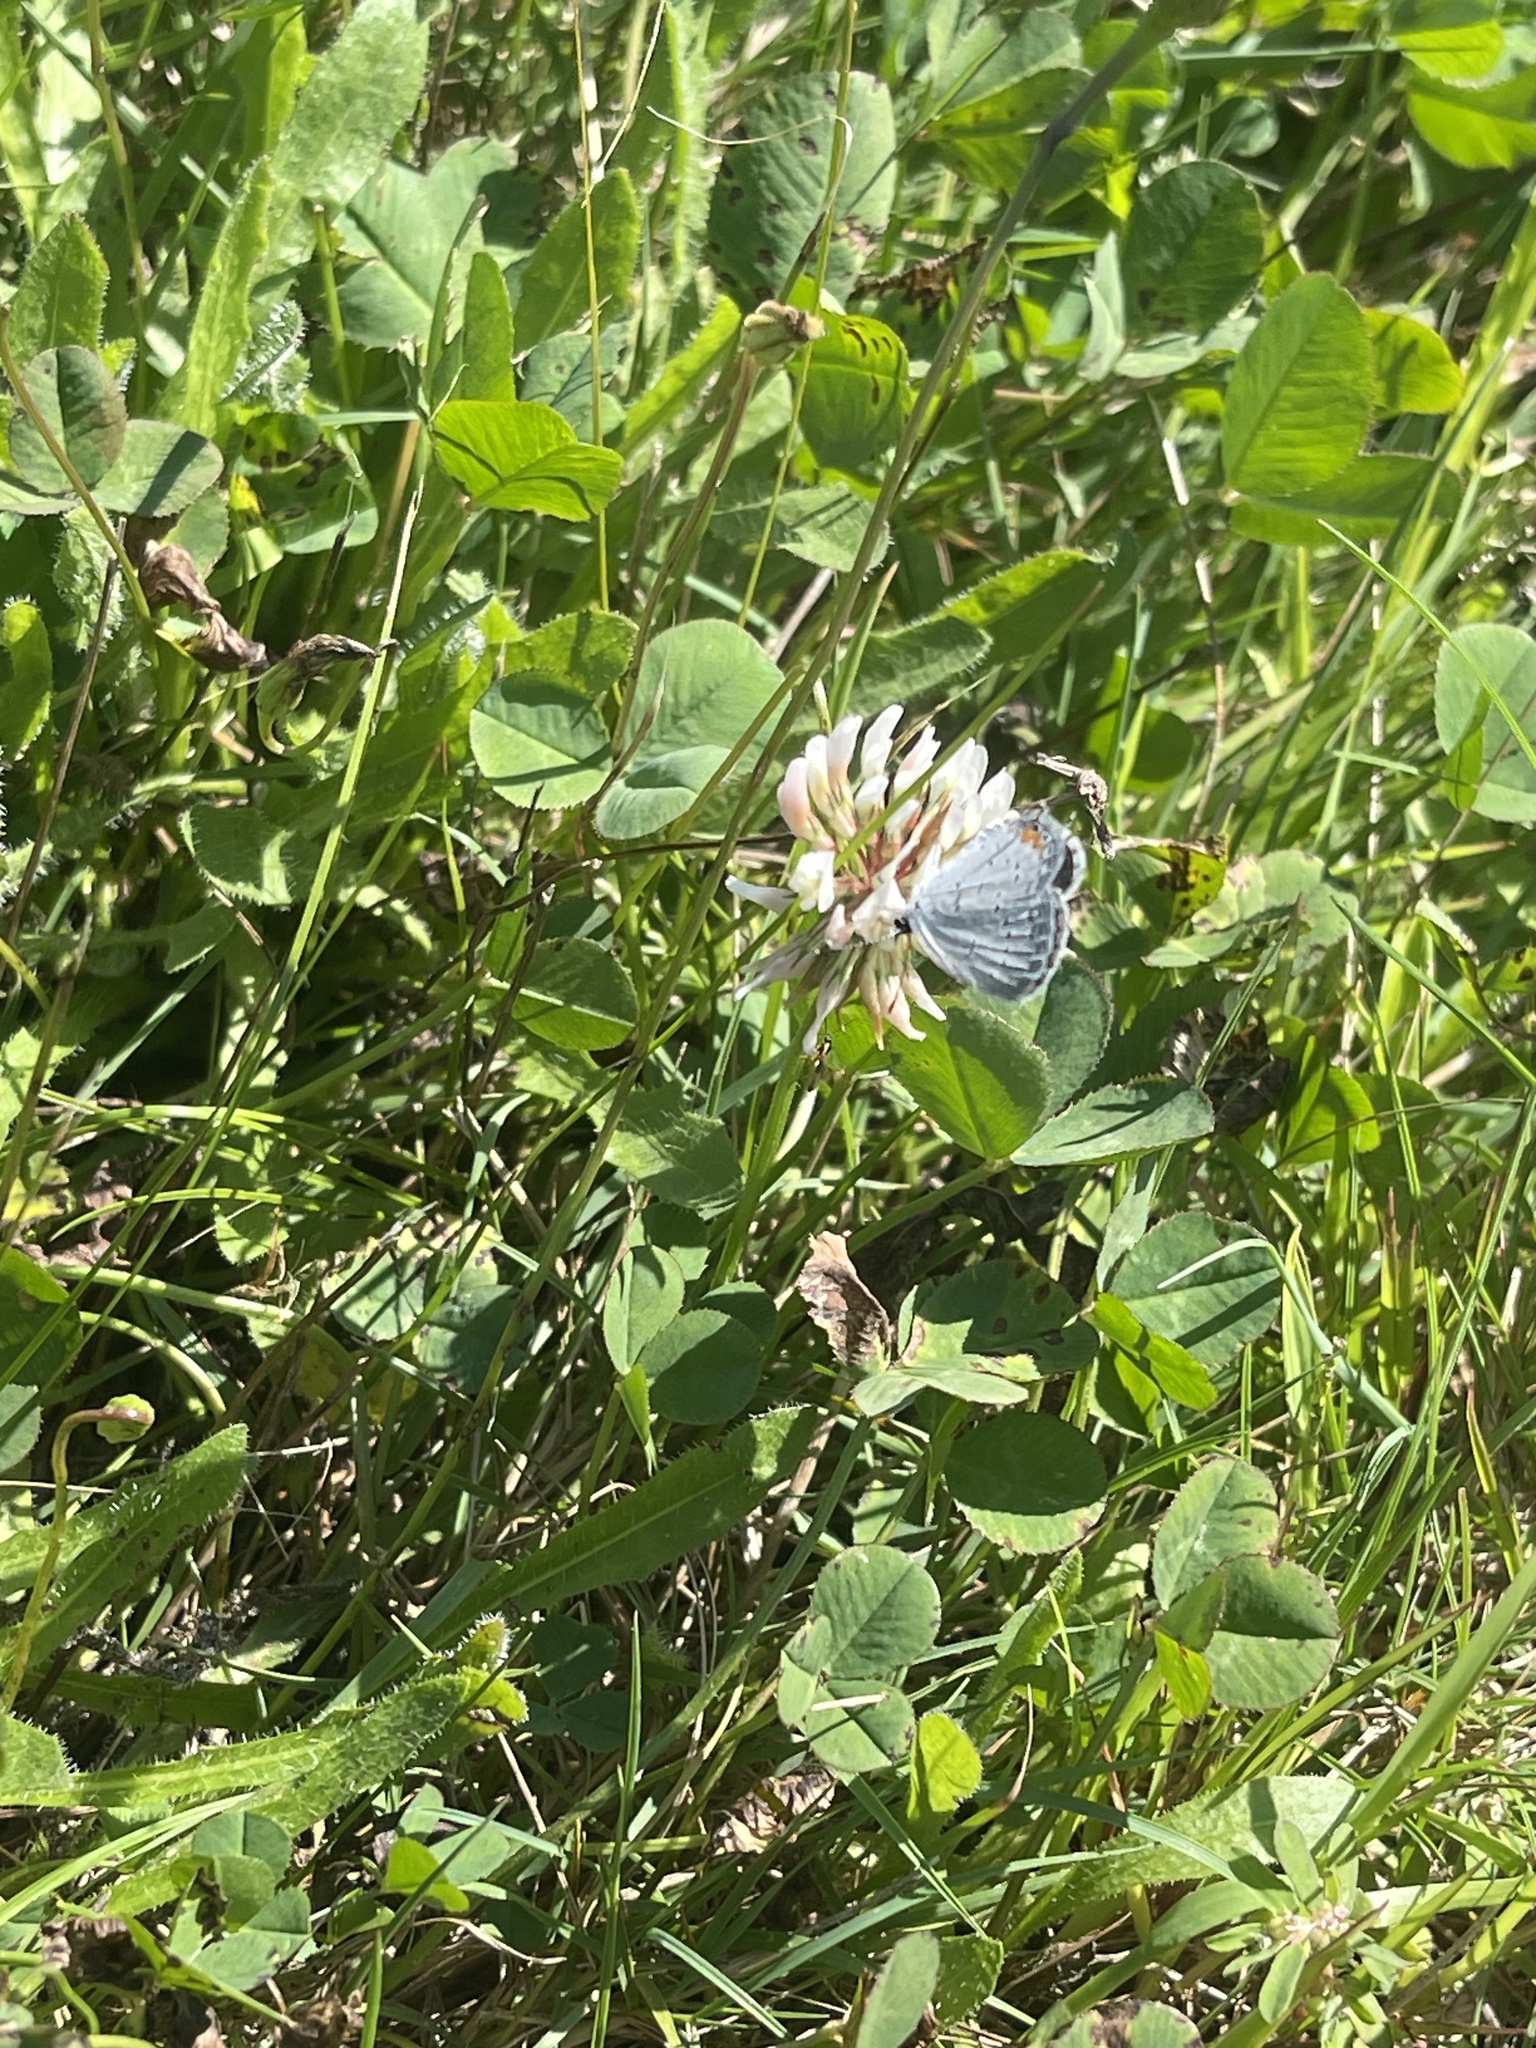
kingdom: Animalia
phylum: Arthropoda
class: Insecta
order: Lepidoptera
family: Lycaenidae
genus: Elkalyce
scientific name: Elkalyce comyntas
